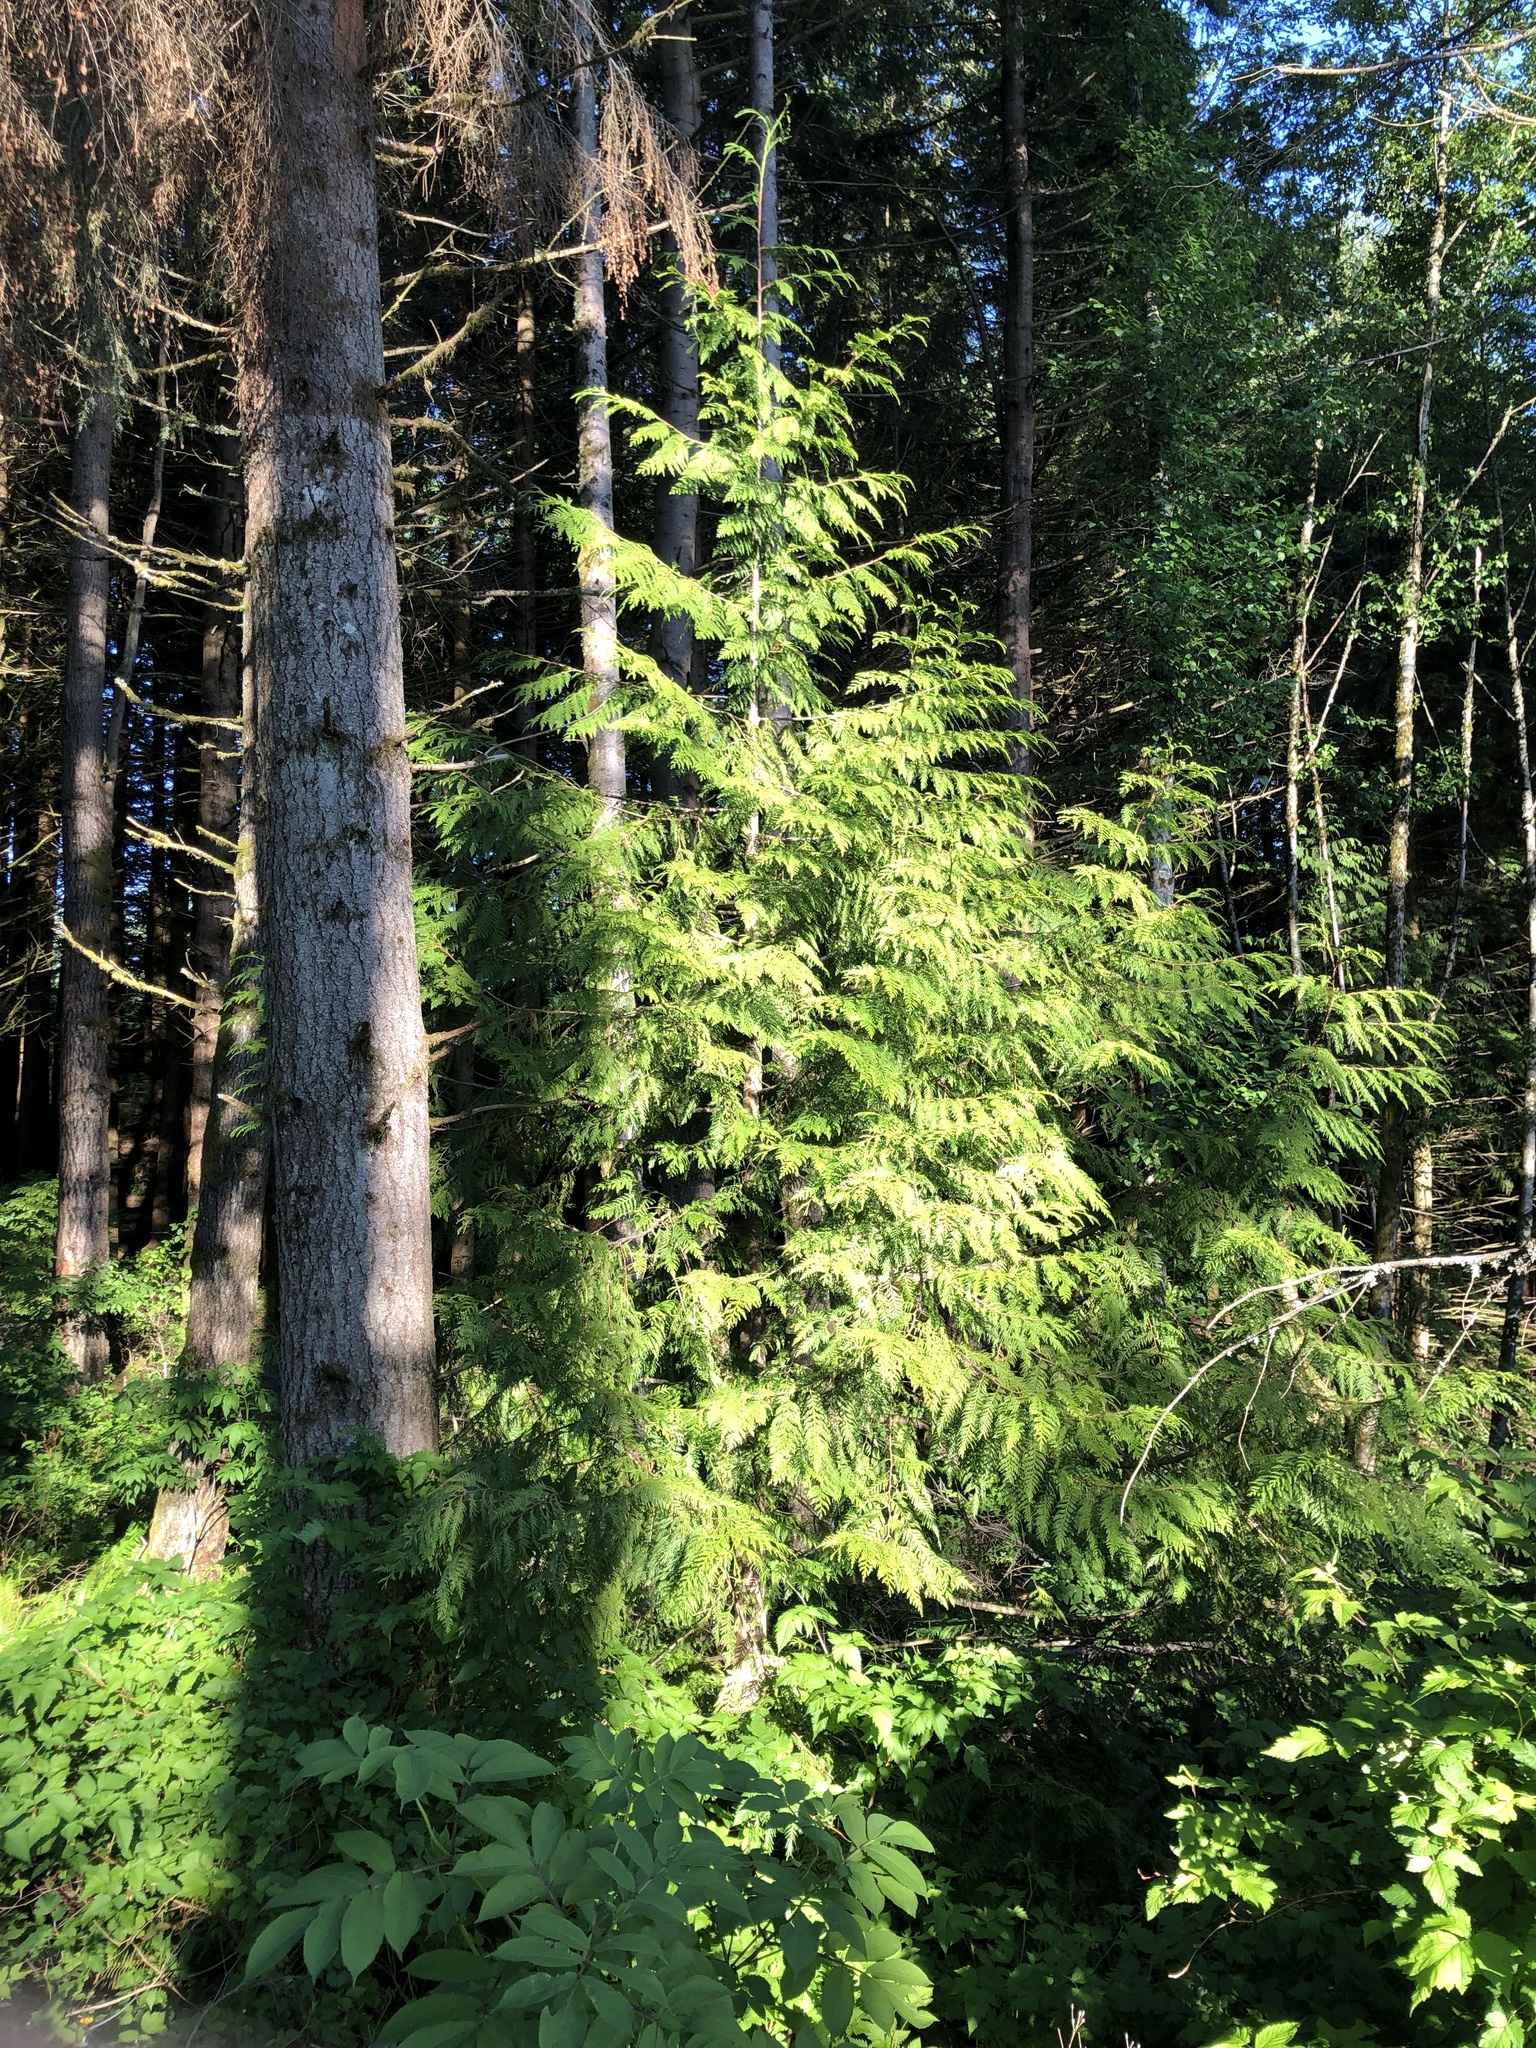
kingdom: Plantae
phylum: Tracheophyta
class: Pinopsida
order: Pinales
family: Cupressaceae
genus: Thuja
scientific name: Thuja plicata
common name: Western red-cedar
